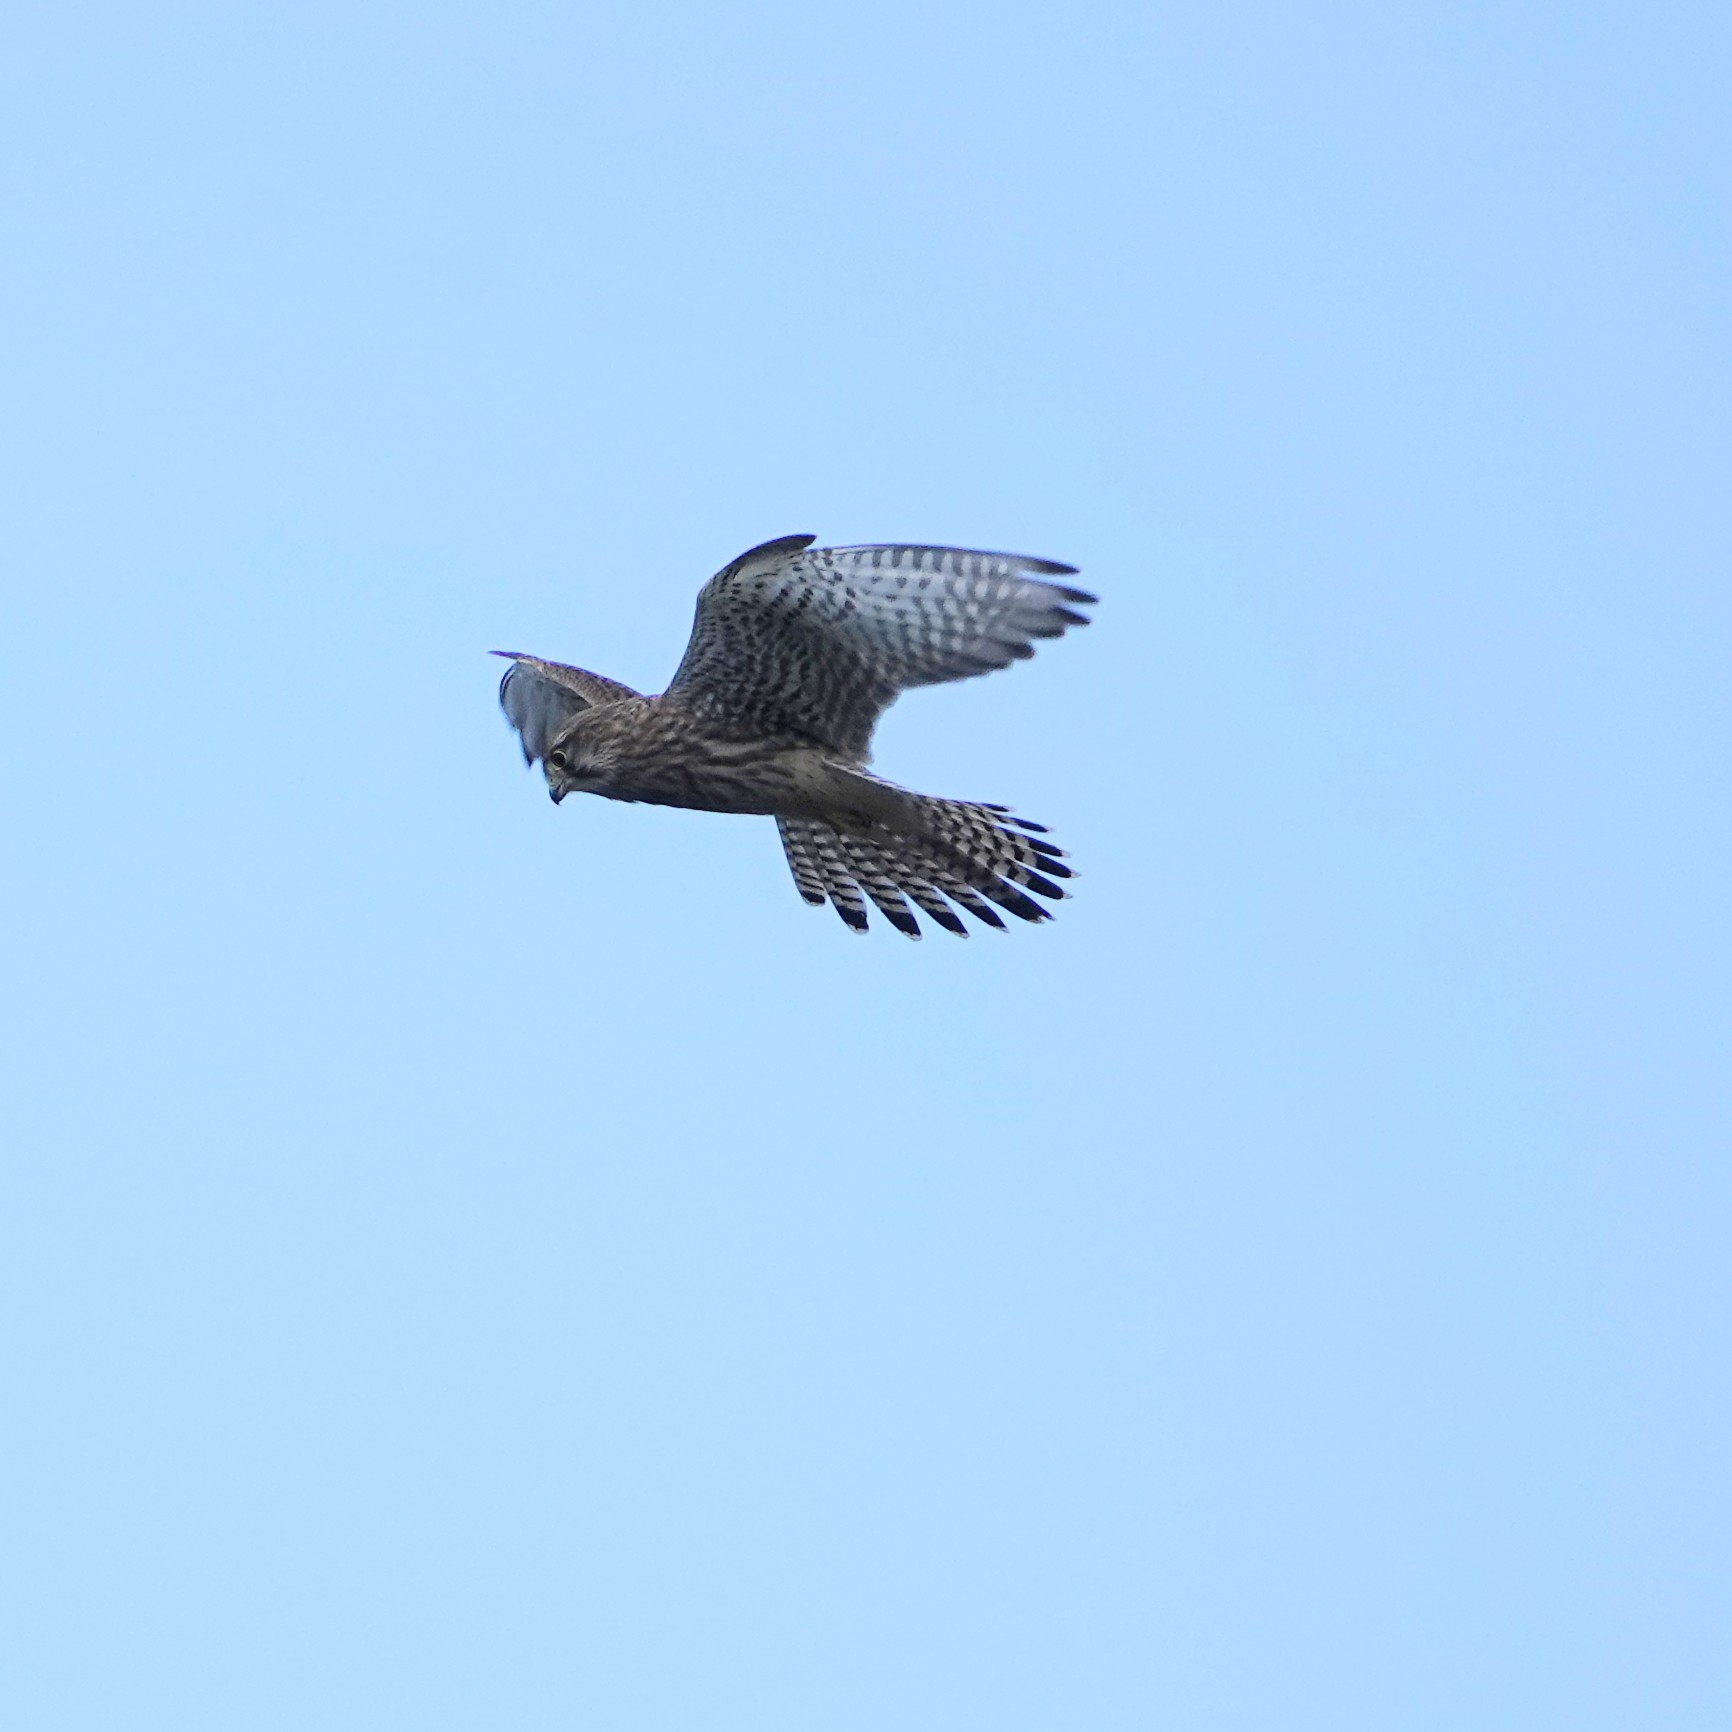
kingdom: Animalia
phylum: Chordata
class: Aves
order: Falconiformes
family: Falconidae
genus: Falco
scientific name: Falco tinnunculus
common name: Common kestrel
